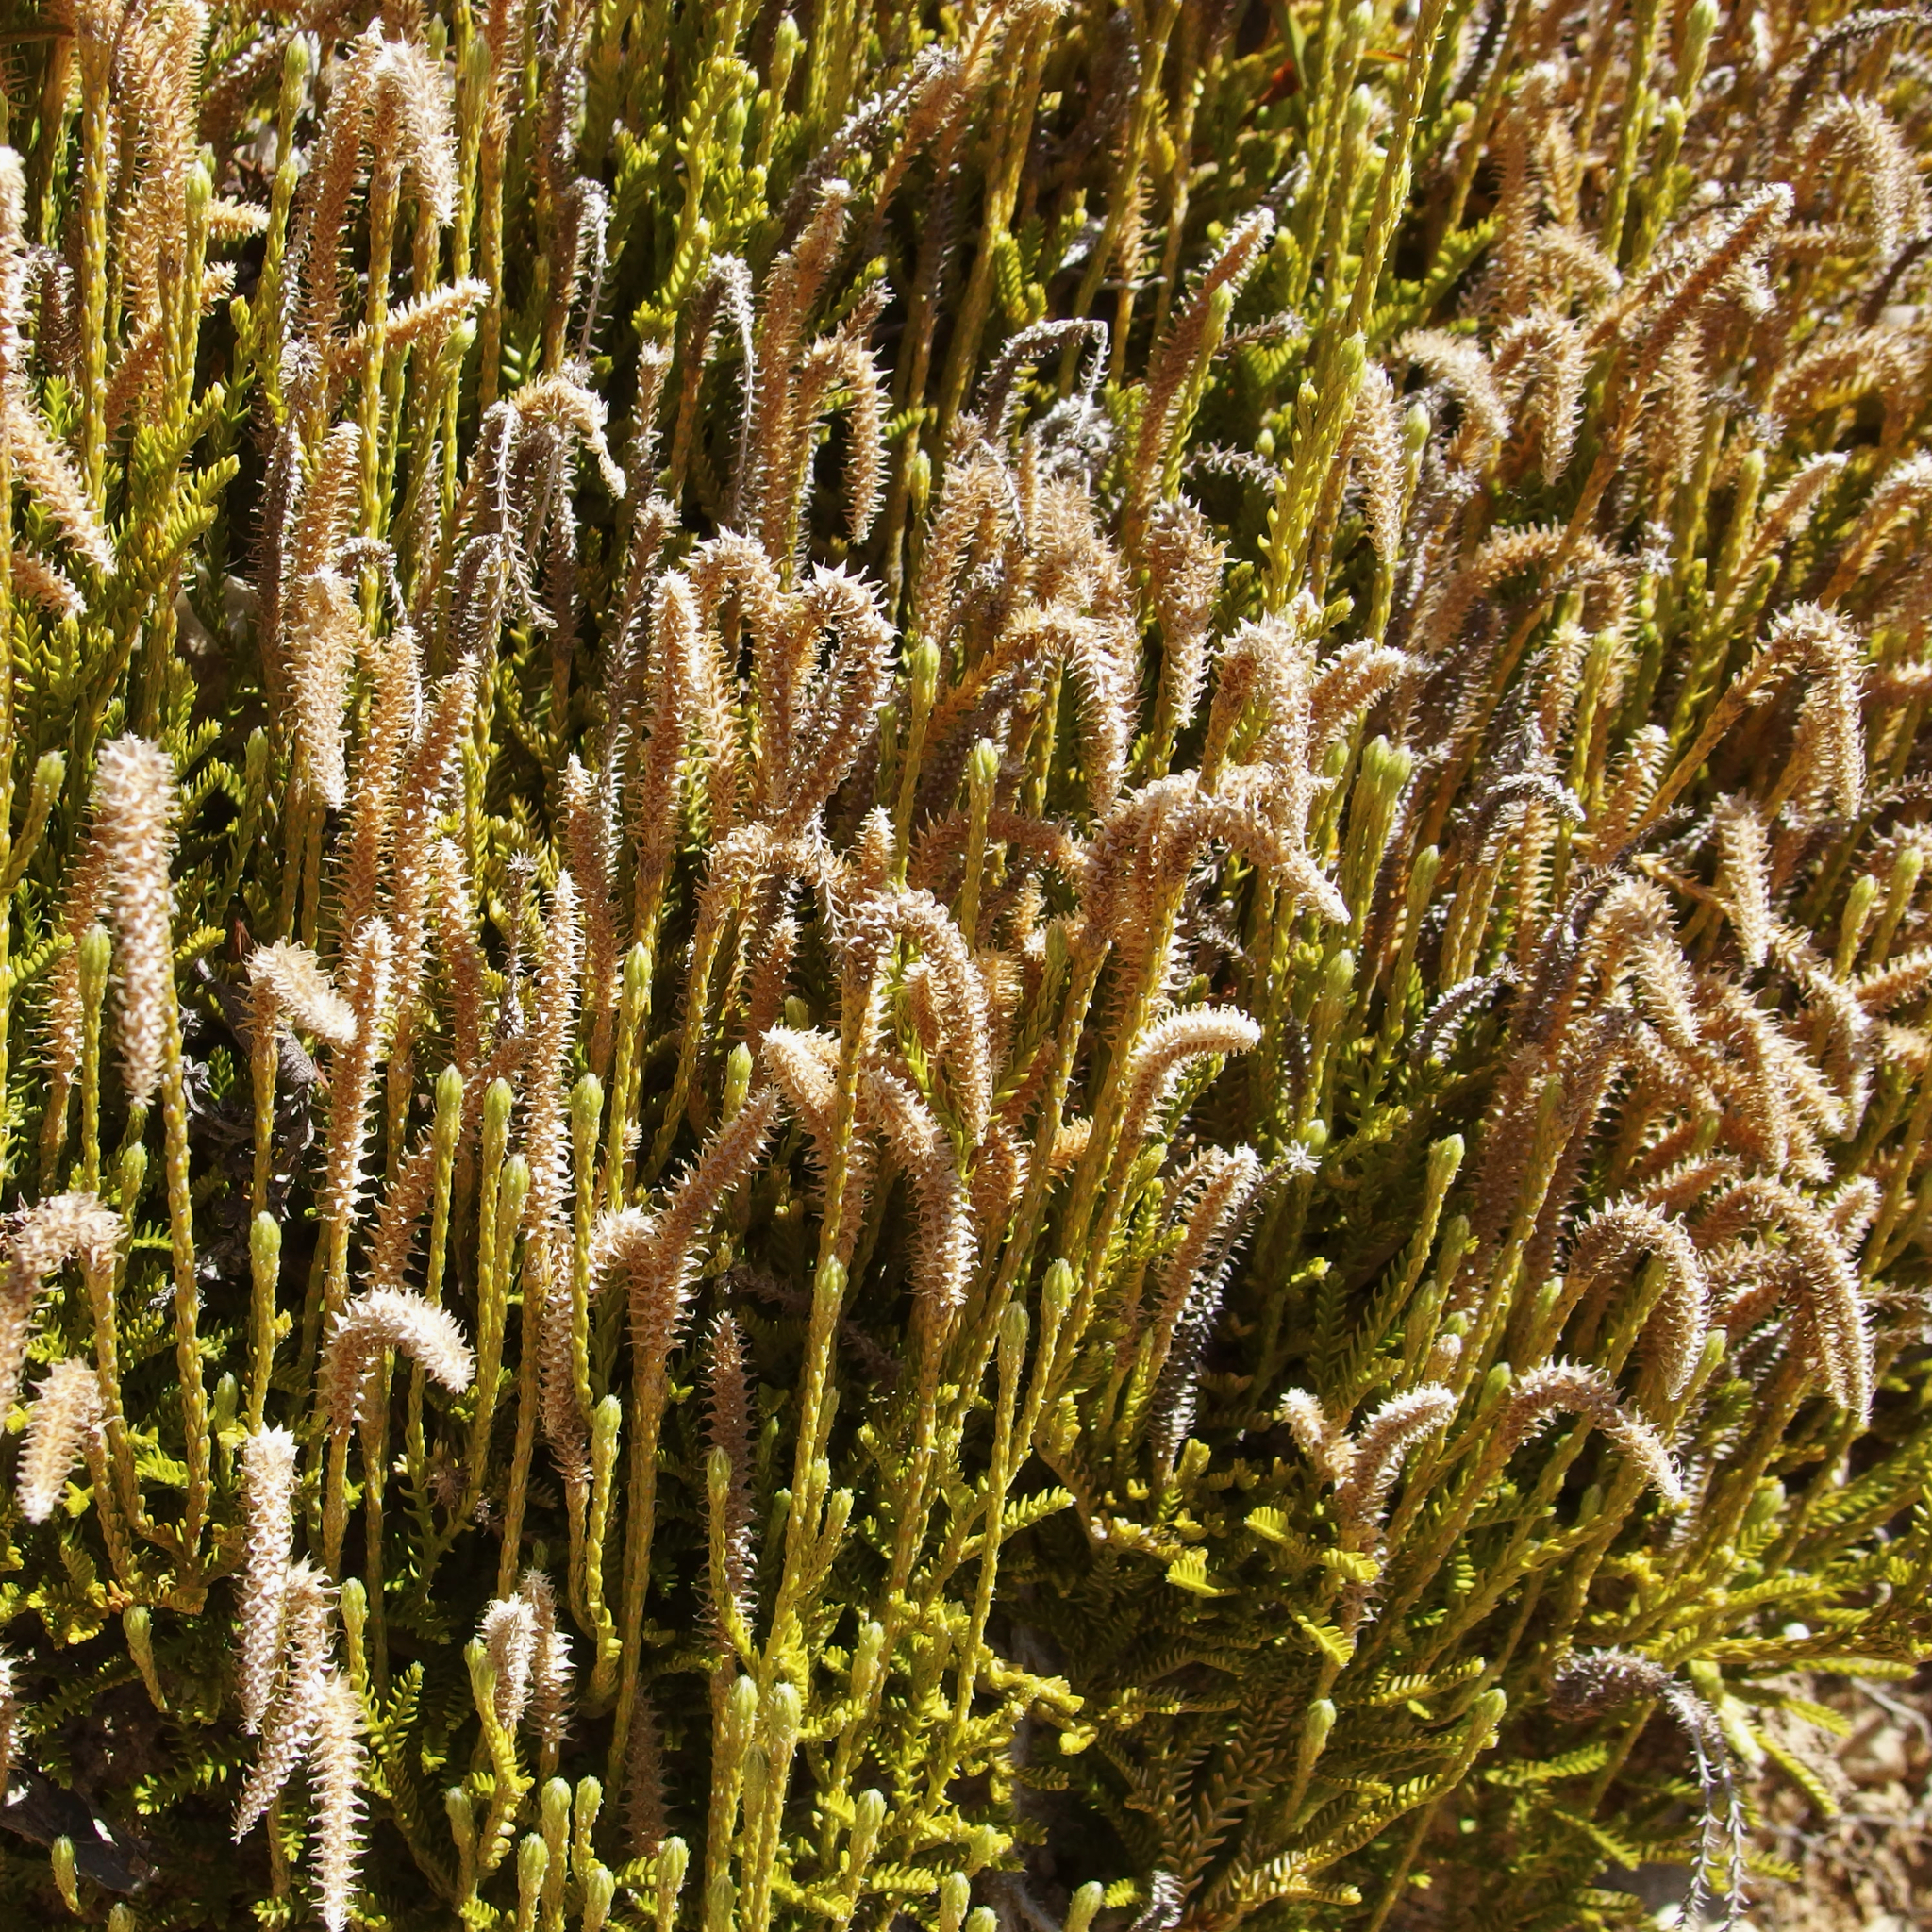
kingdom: Plantae
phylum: Tracheophyta
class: Lycopodiopsida
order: Lycopodiales
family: Lycopodiaceae
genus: Diphasium
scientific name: Diphasium scariosum
